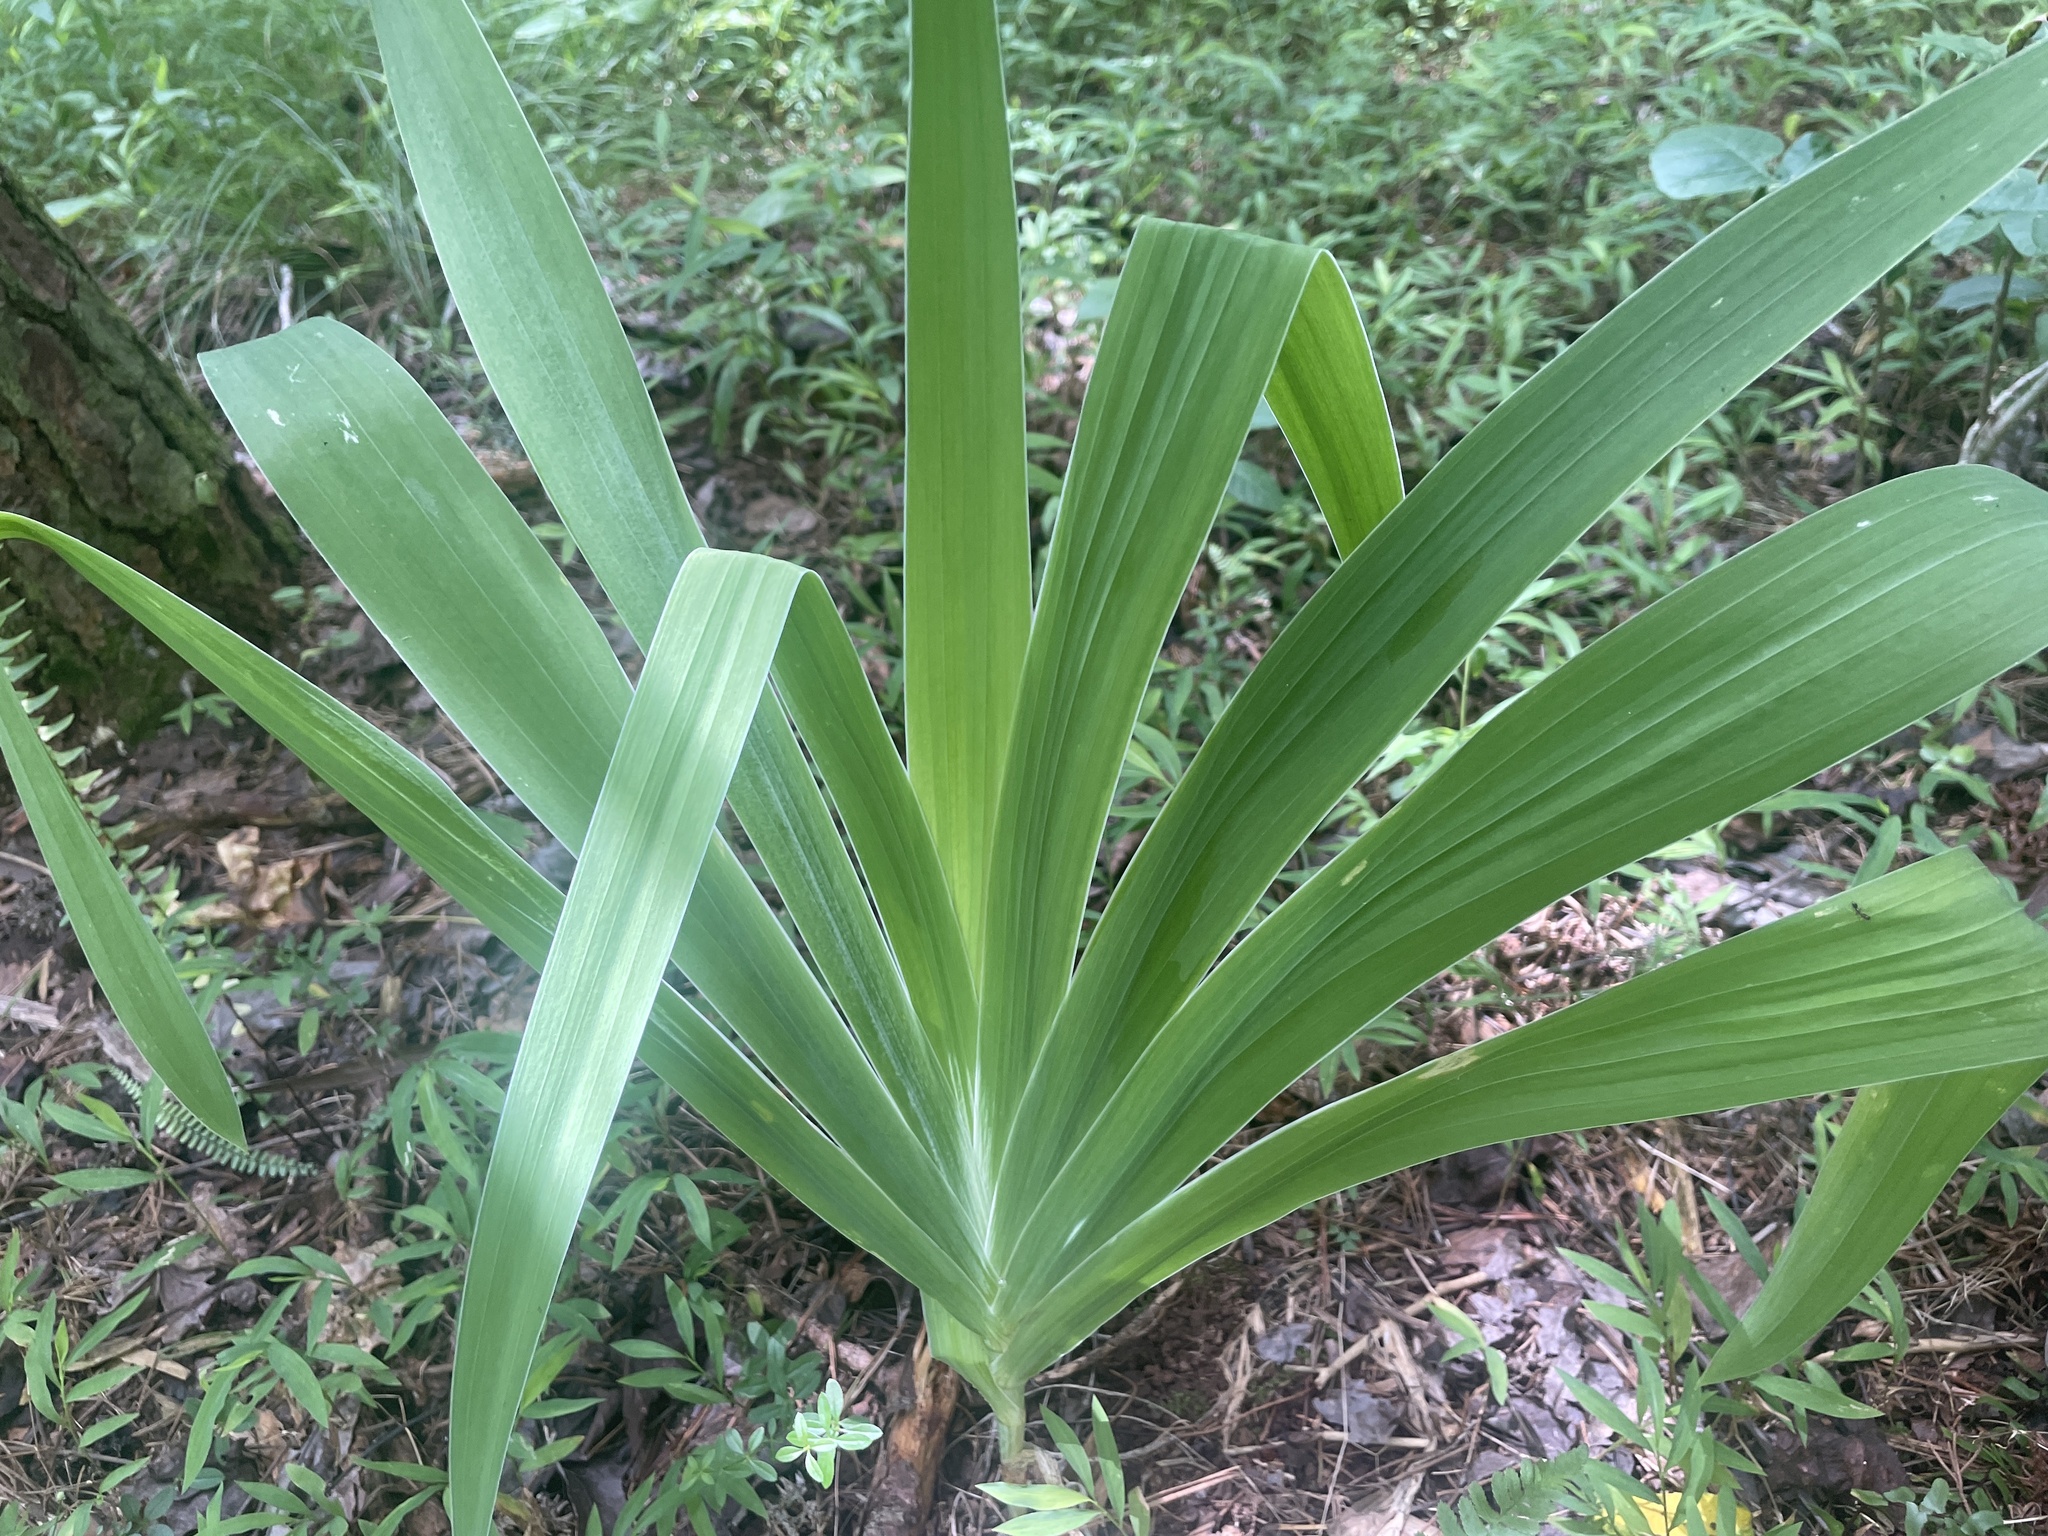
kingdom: Plantae
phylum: Tracheophyta
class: Liliopsida
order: Asparagales
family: Iridaceae
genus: Iris
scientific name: Iris domestica
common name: Belamcanda
